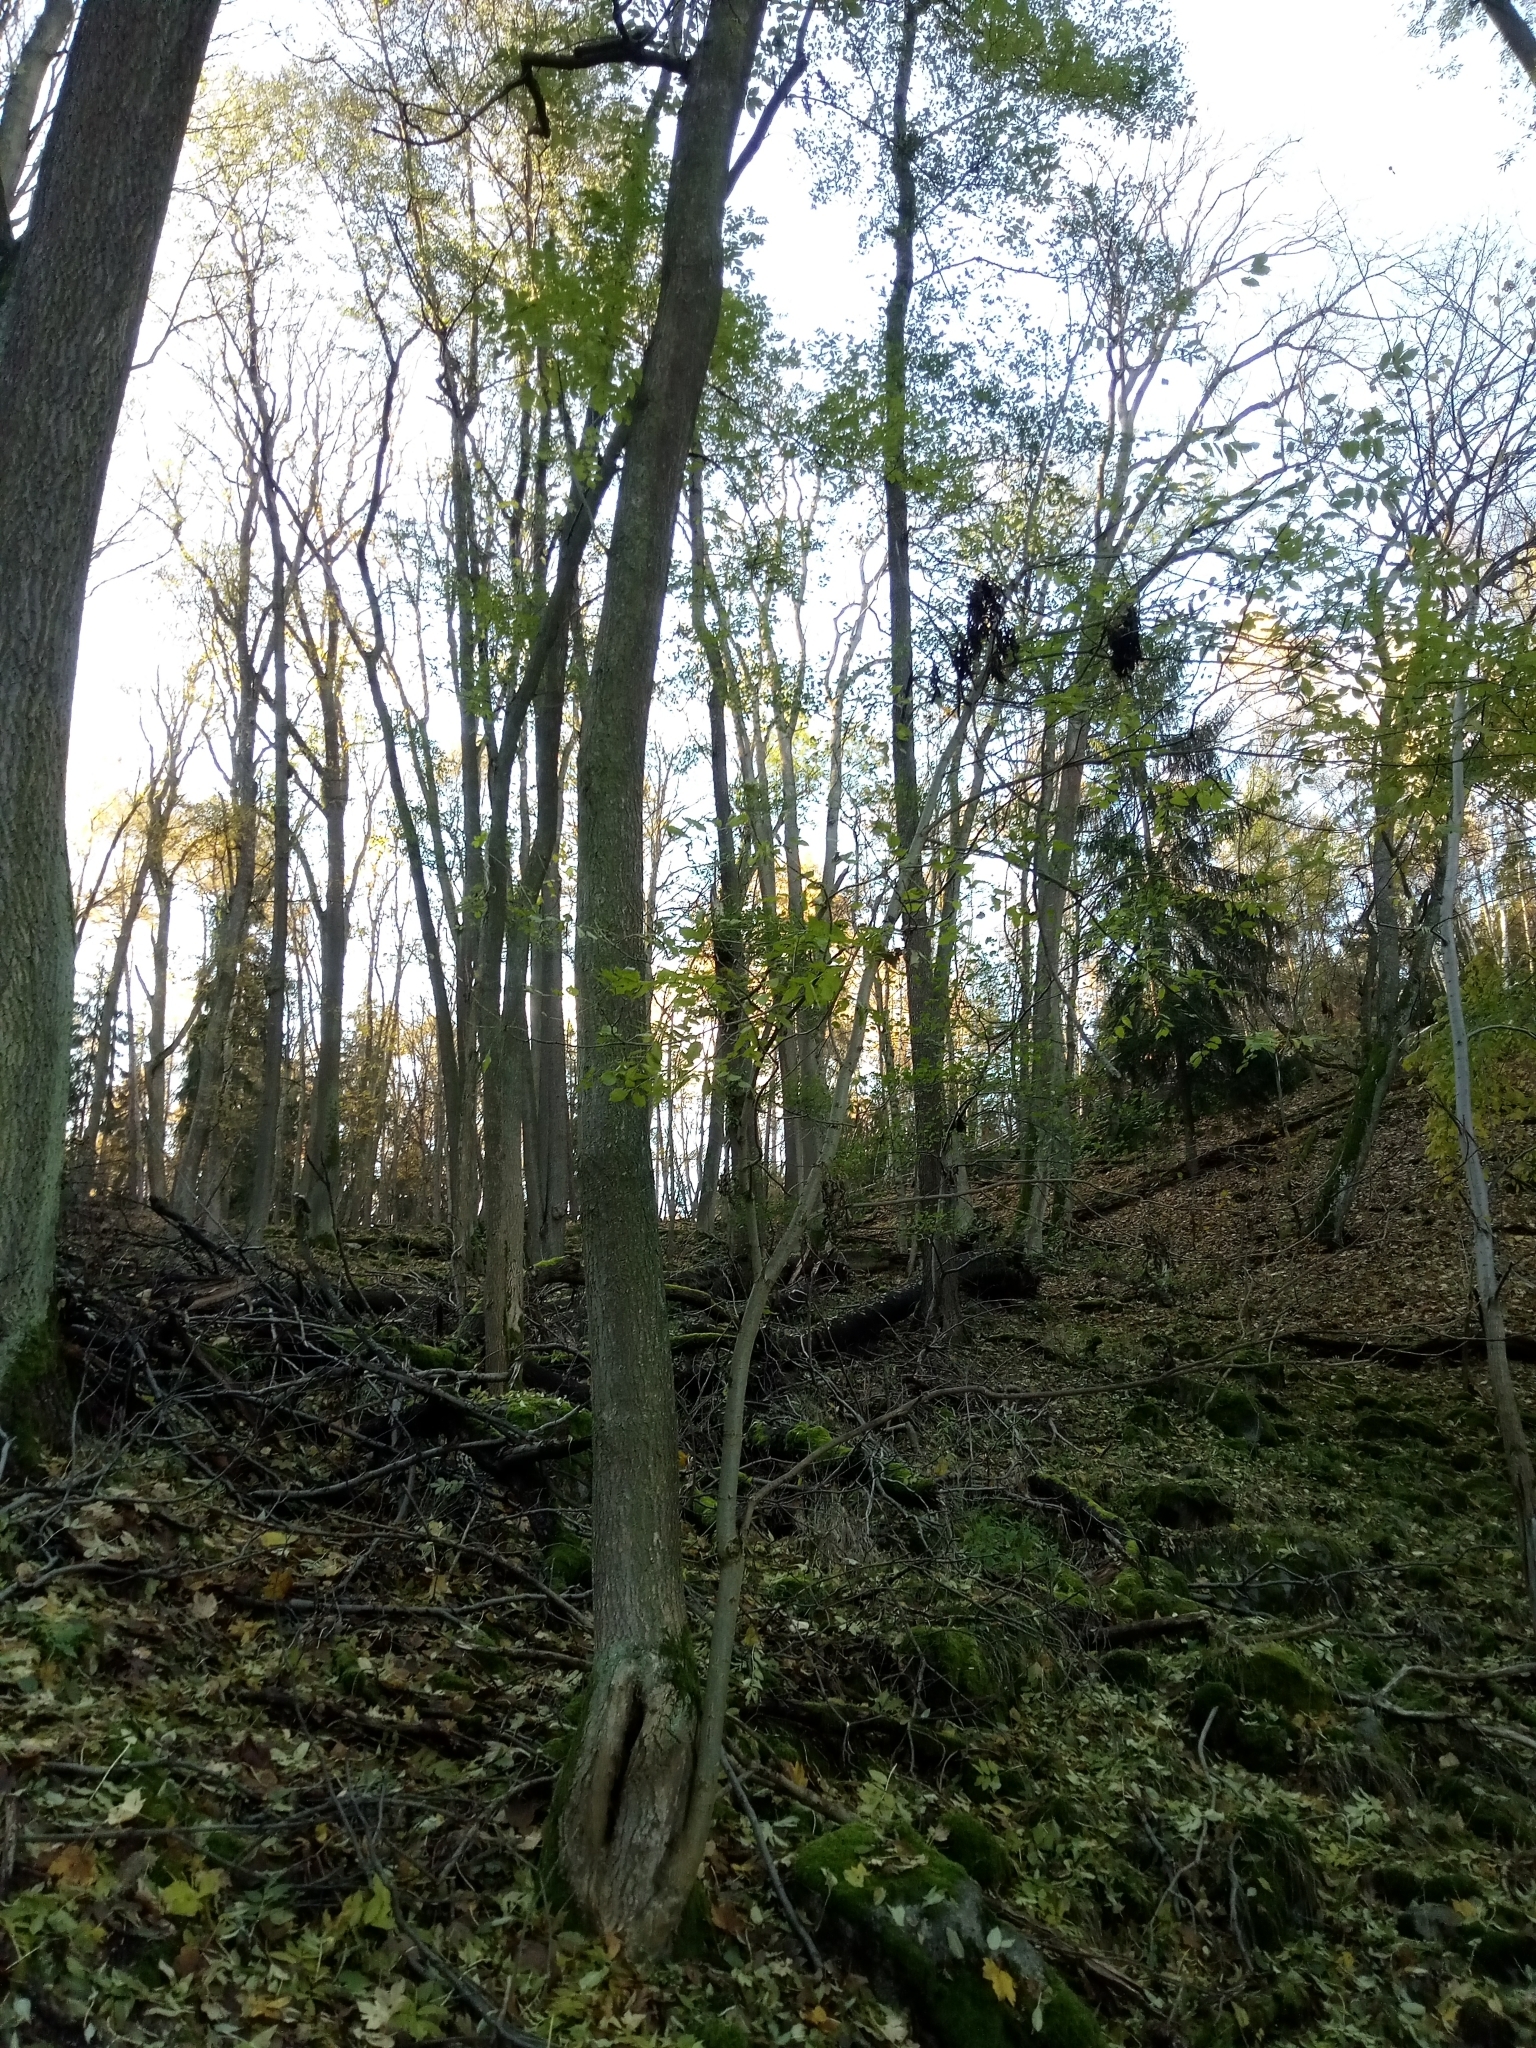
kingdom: Plantae
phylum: Tracheophyta
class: Magnoliopsida
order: Lamiales
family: Oleaceae
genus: Fraxinus
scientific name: Fraxinus excelsior
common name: European ash
